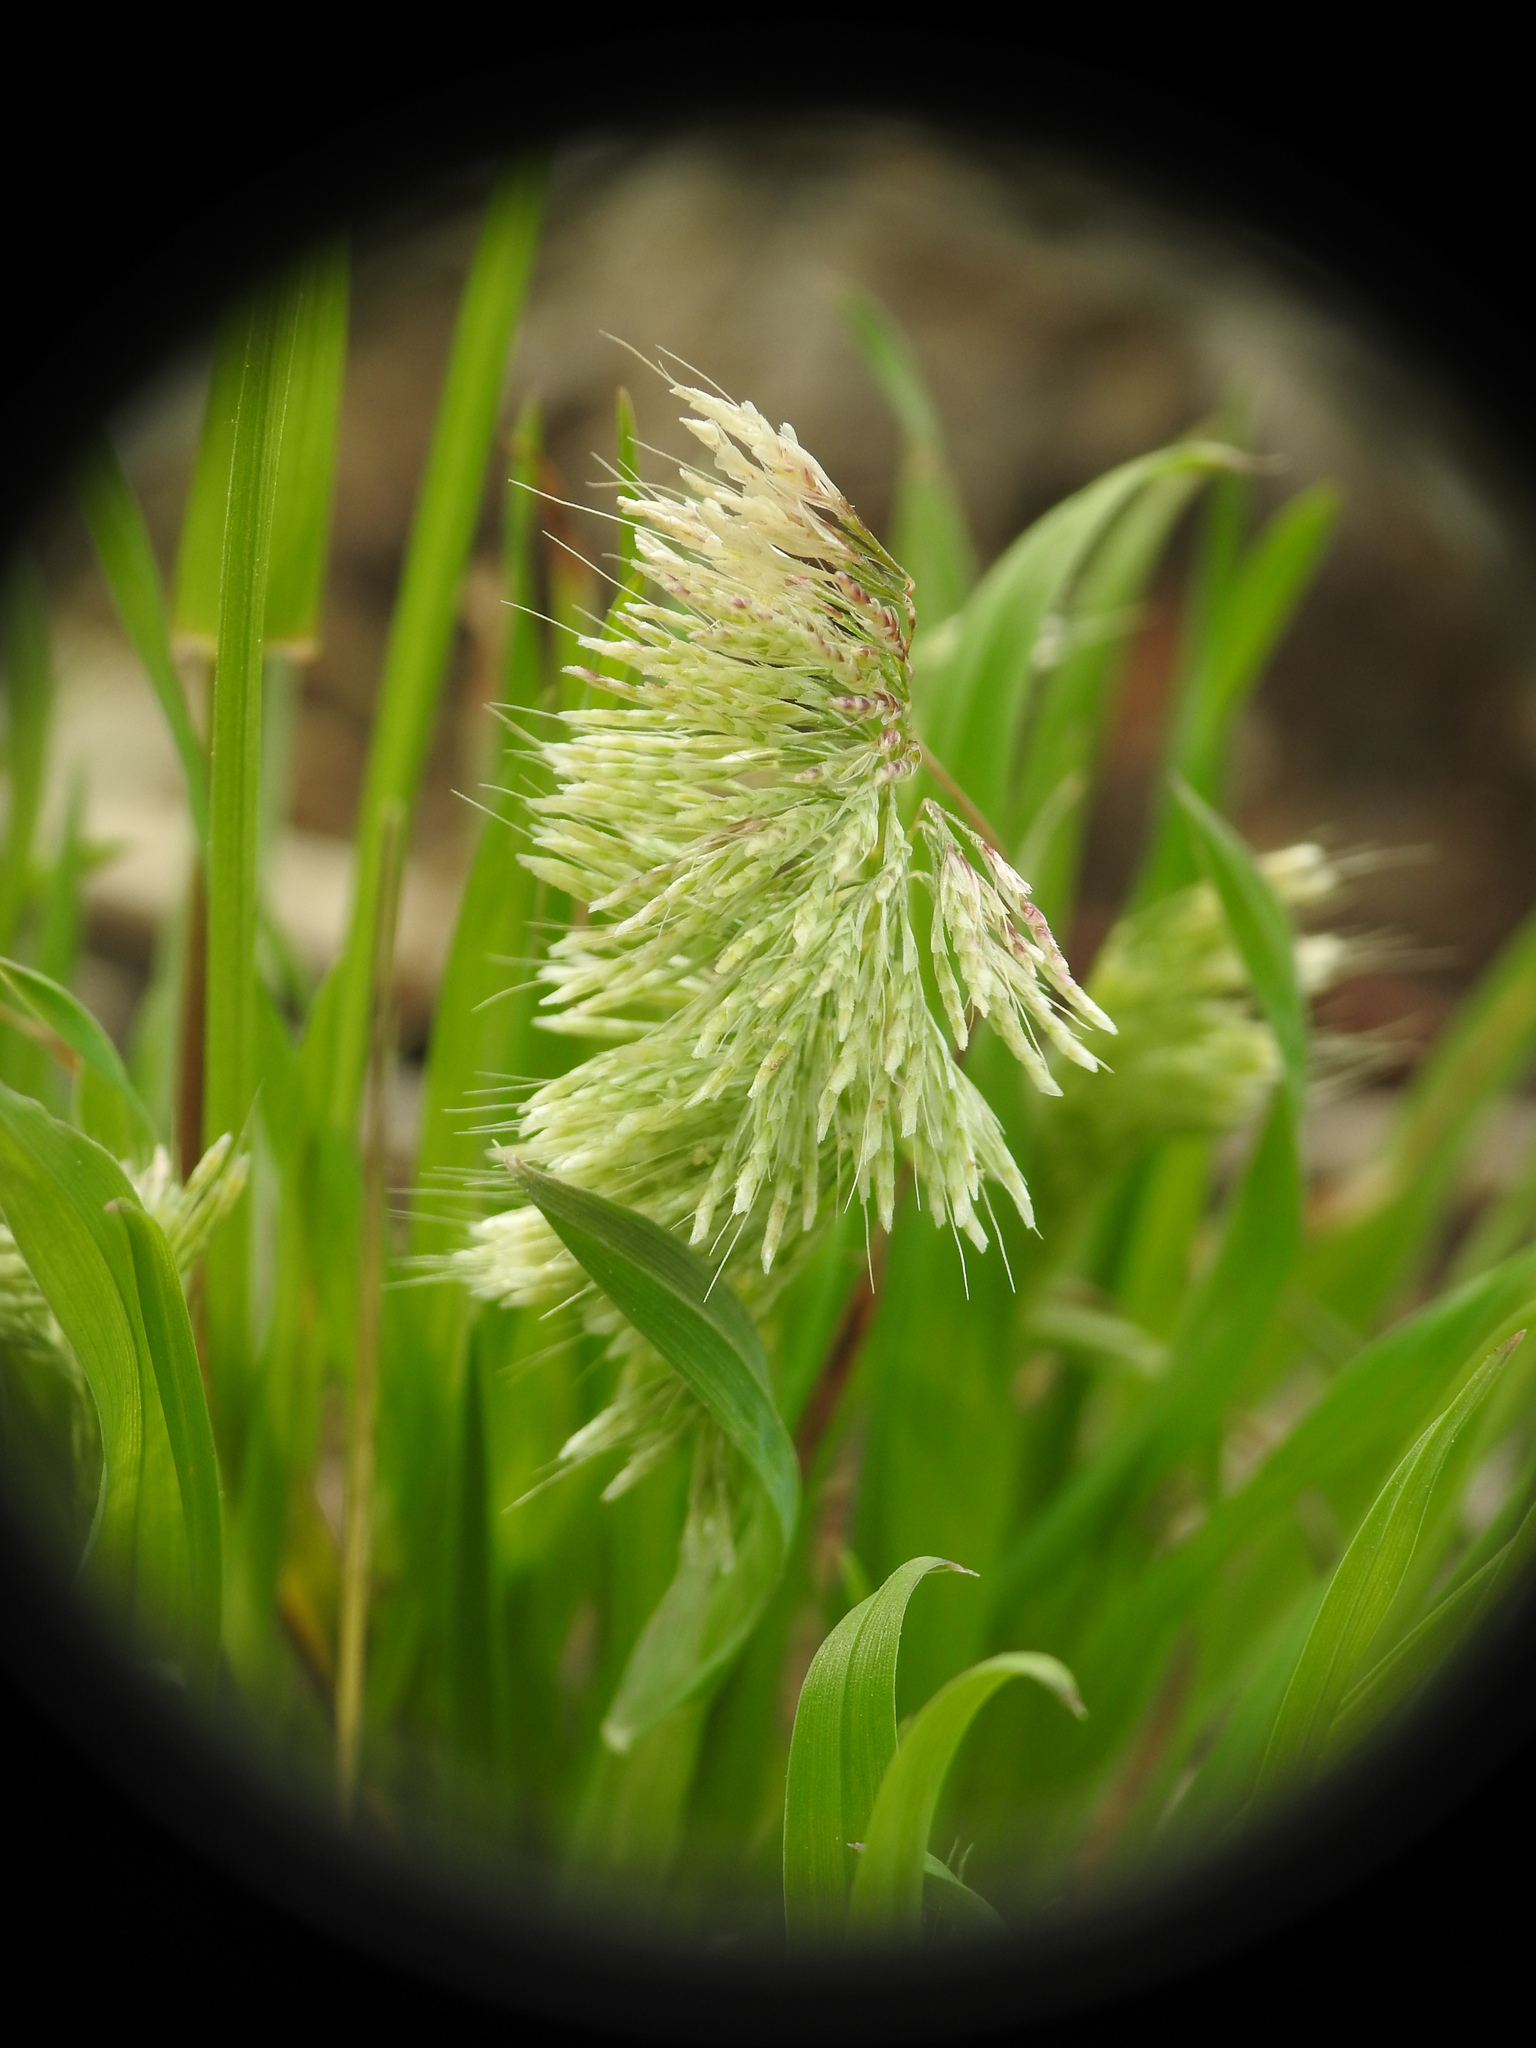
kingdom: Plantae
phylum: Tracheophyta
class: Liliopsida
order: Poales
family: Poaceae
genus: Lamarckia
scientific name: Lamarckia aurea
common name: Golden dog's-tail
